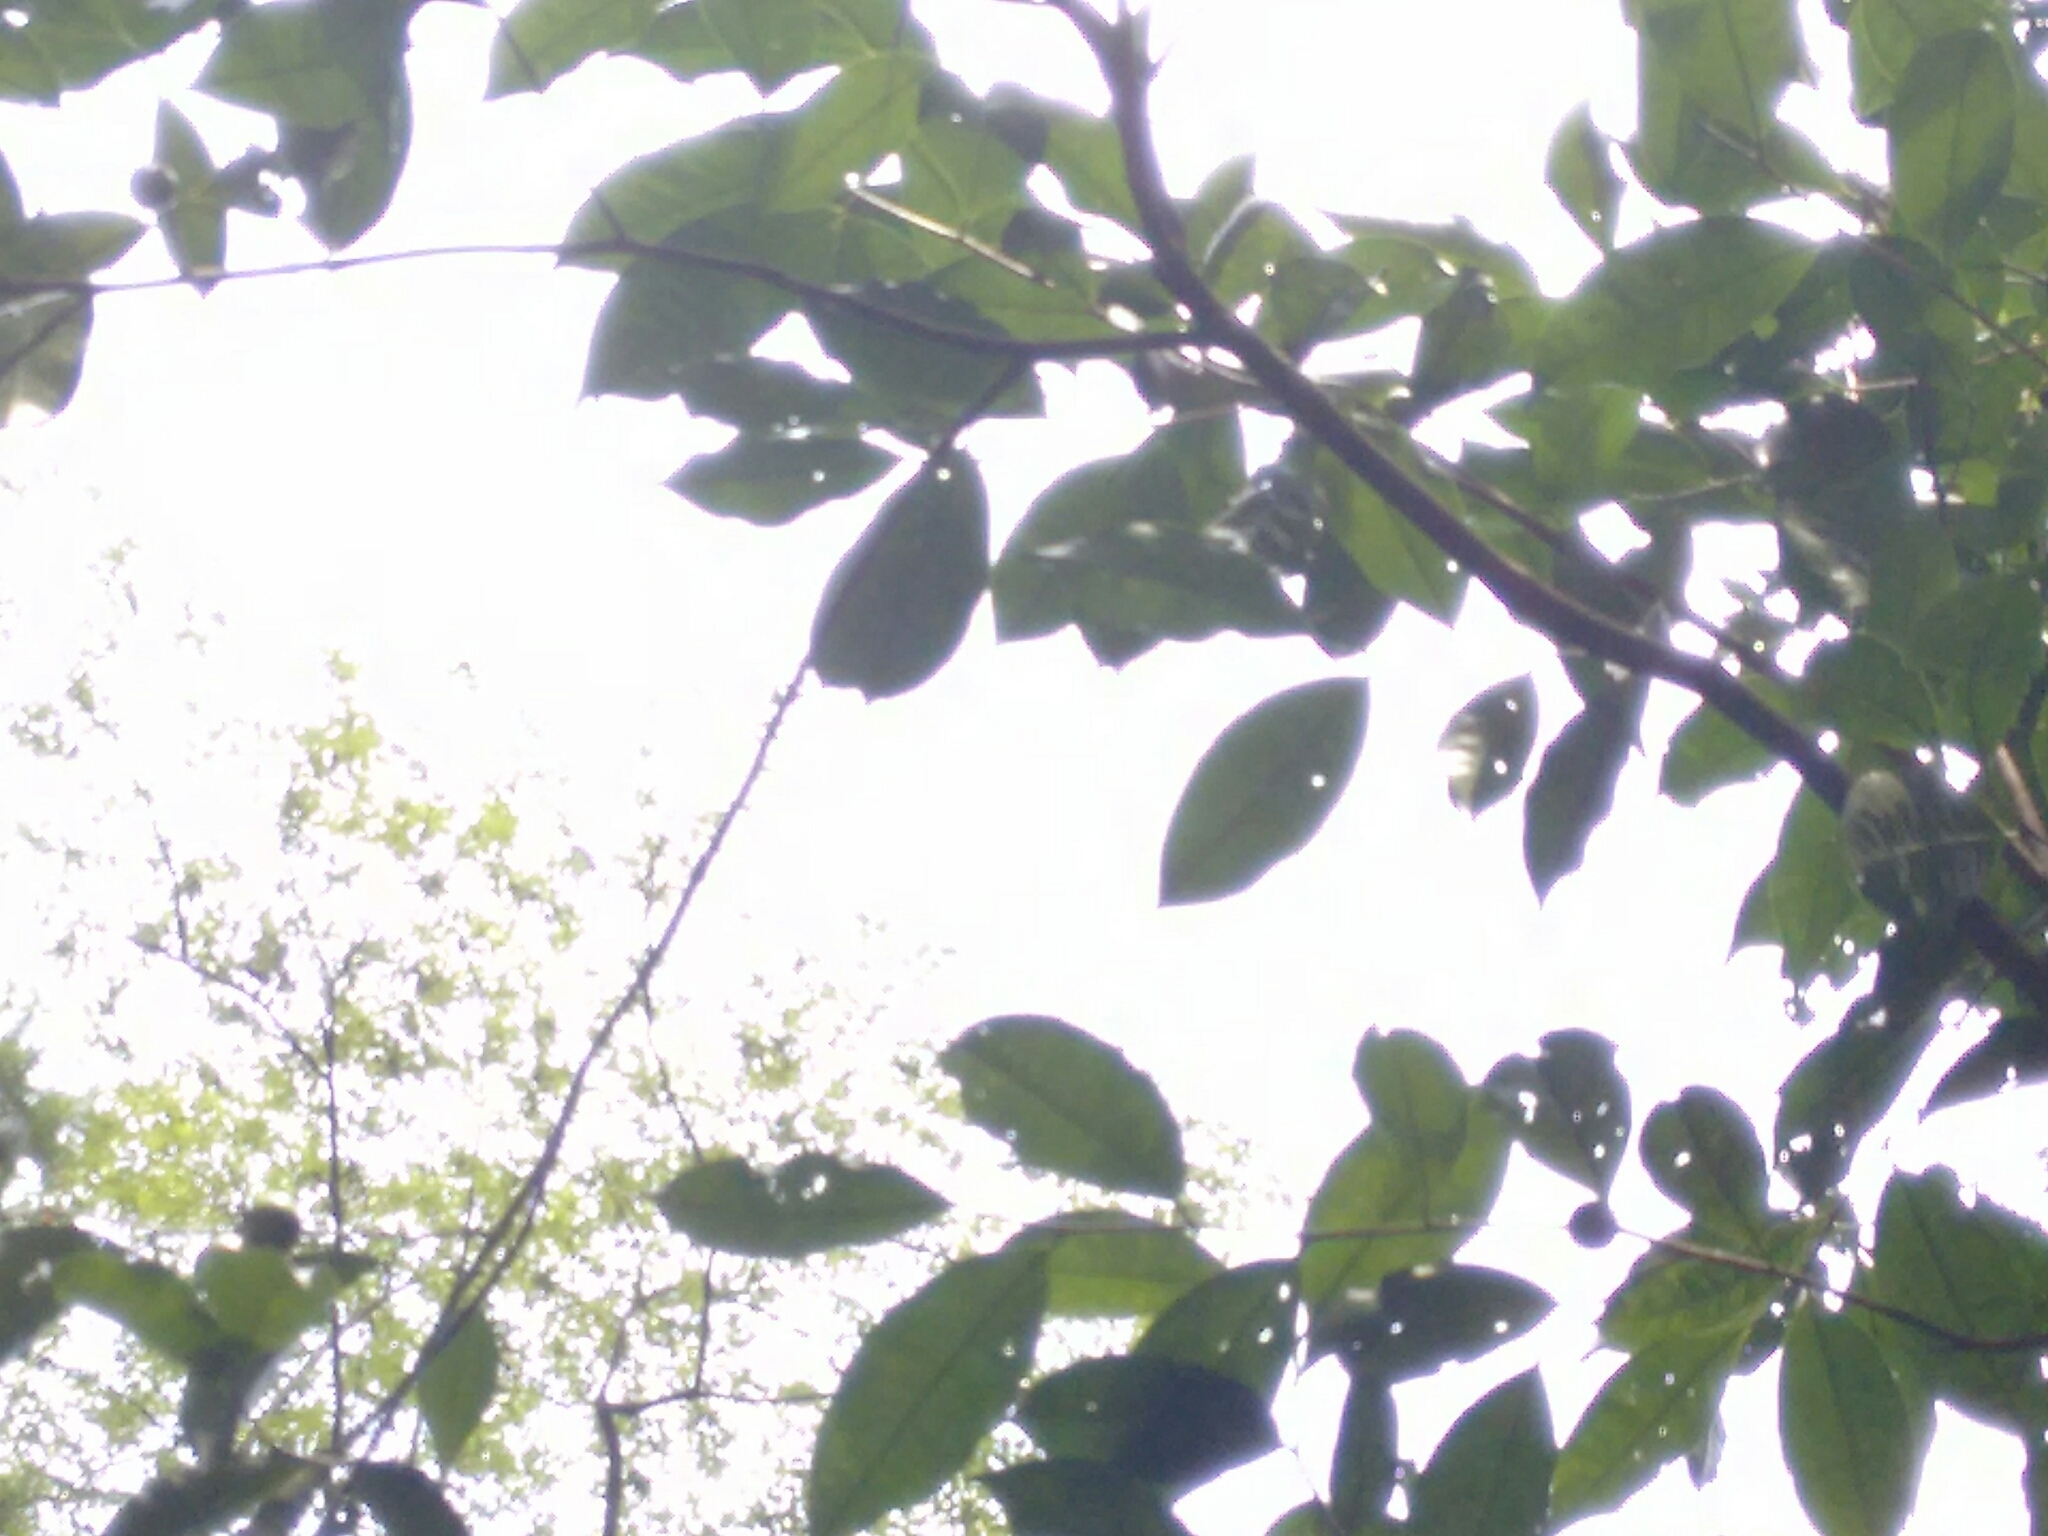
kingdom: Plantae
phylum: Tracheophyta
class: Magnoliopsida
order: Ericales
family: Theaceae
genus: Camellia
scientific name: Camellia sinensis
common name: Tea
